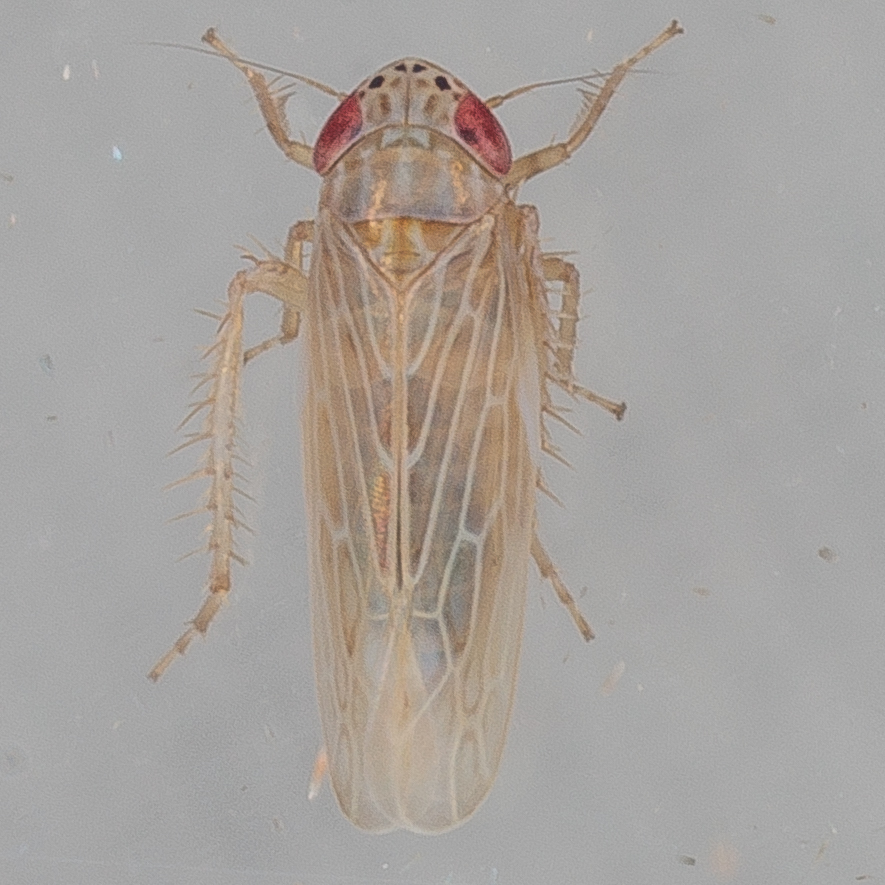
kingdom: Animalia
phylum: Arthropoda
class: Insecta
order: Hemiptera
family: Cicadellidae
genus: Graminella
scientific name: Graminella sonora
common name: Lesser lawn leafhopper
